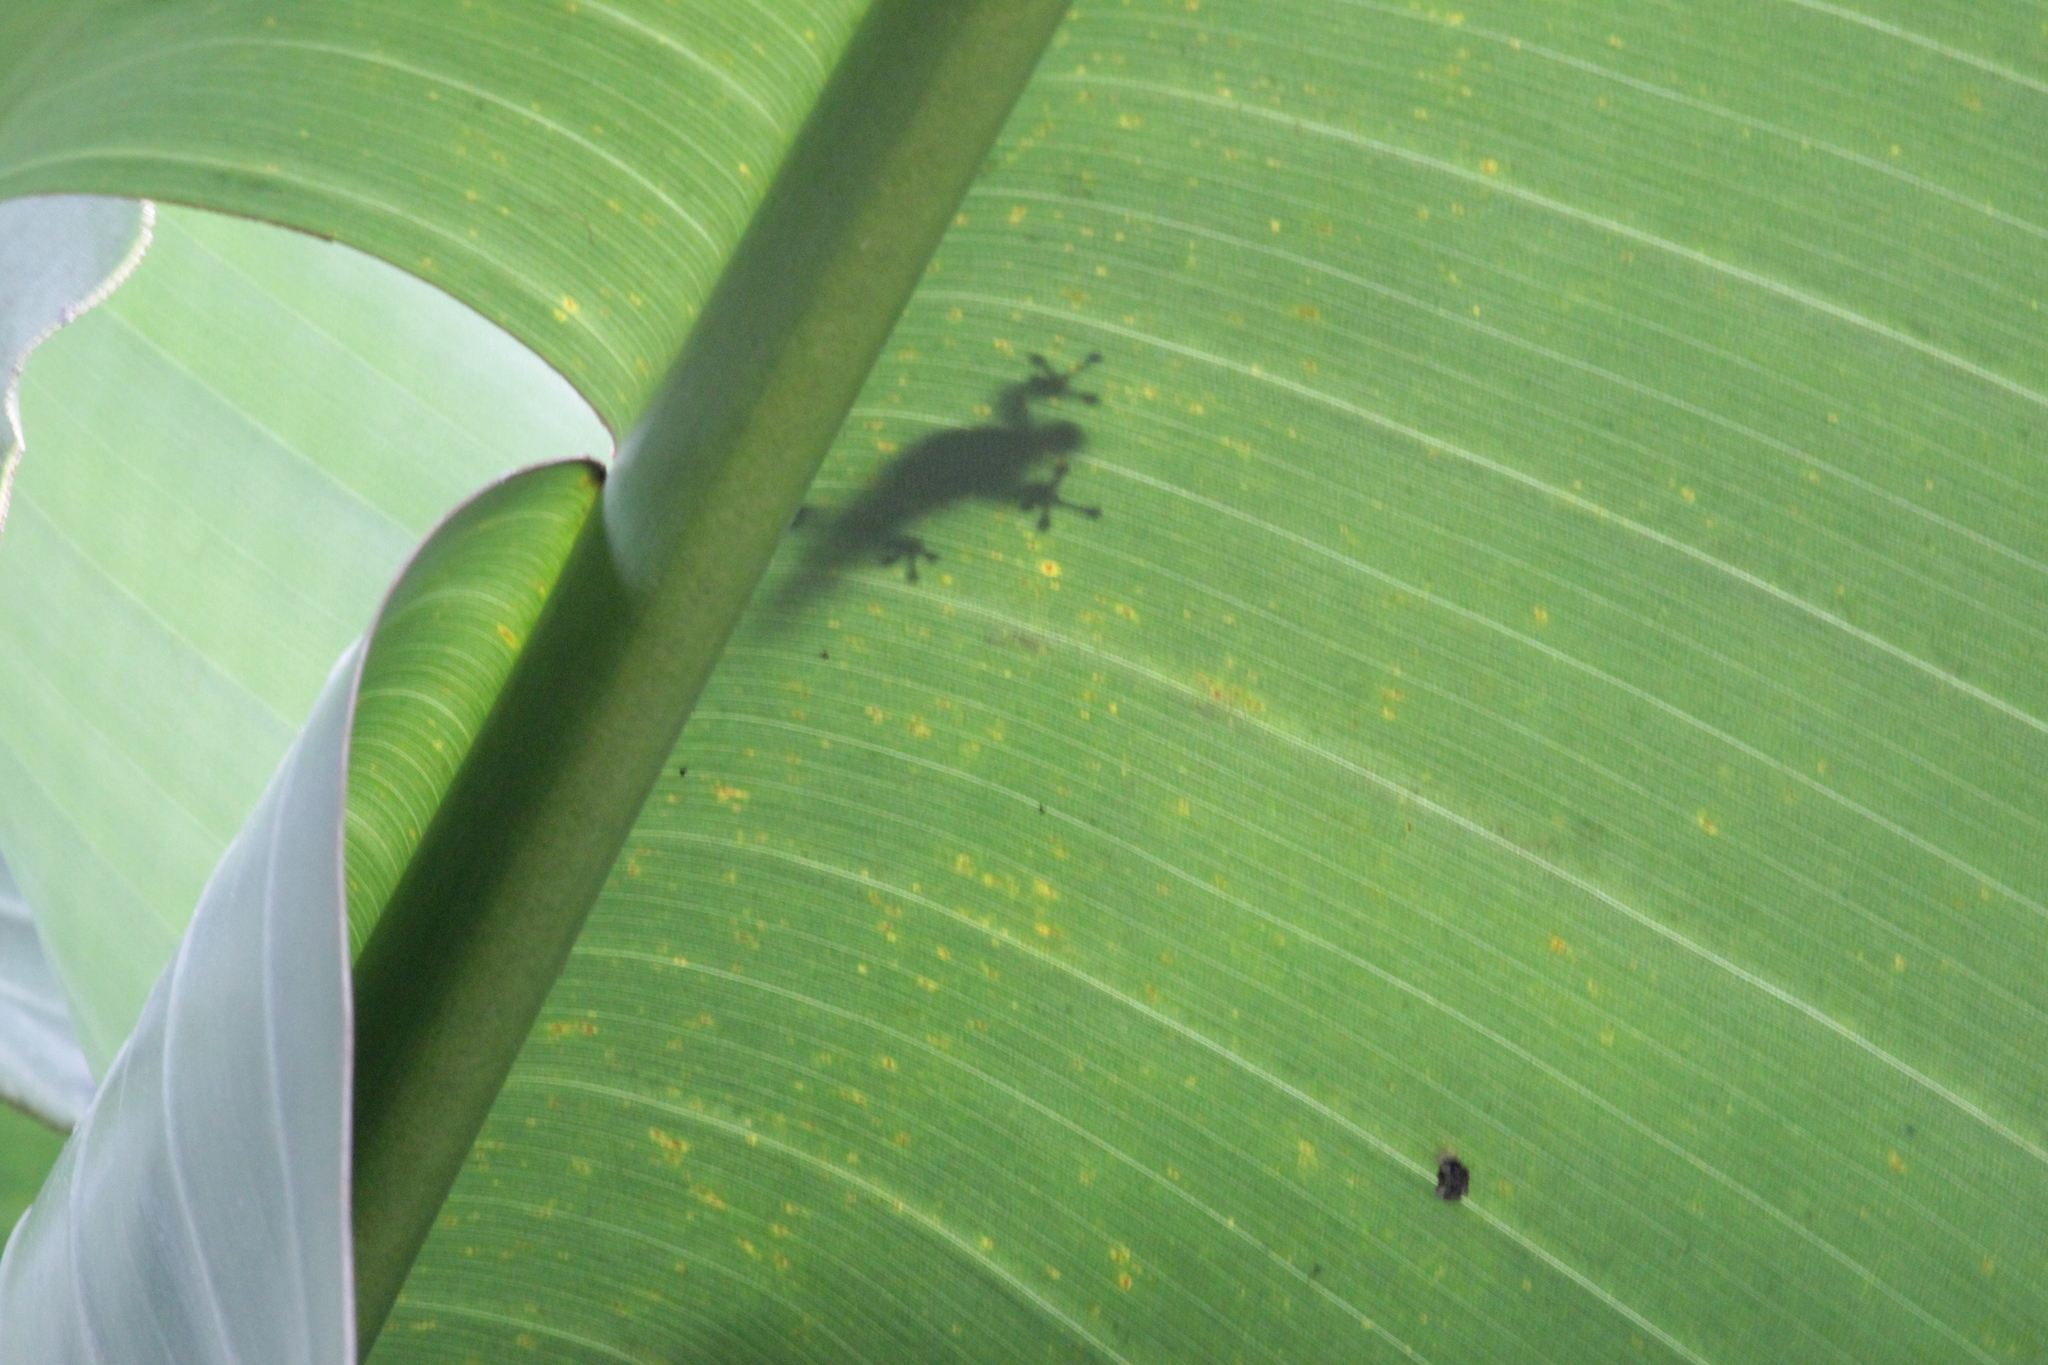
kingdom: Animalia
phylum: Chordata
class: Squamata
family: Gekkonidae
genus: Lygodactylus
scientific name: Lygodactylus capensis
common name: Cape dwarf gecko
